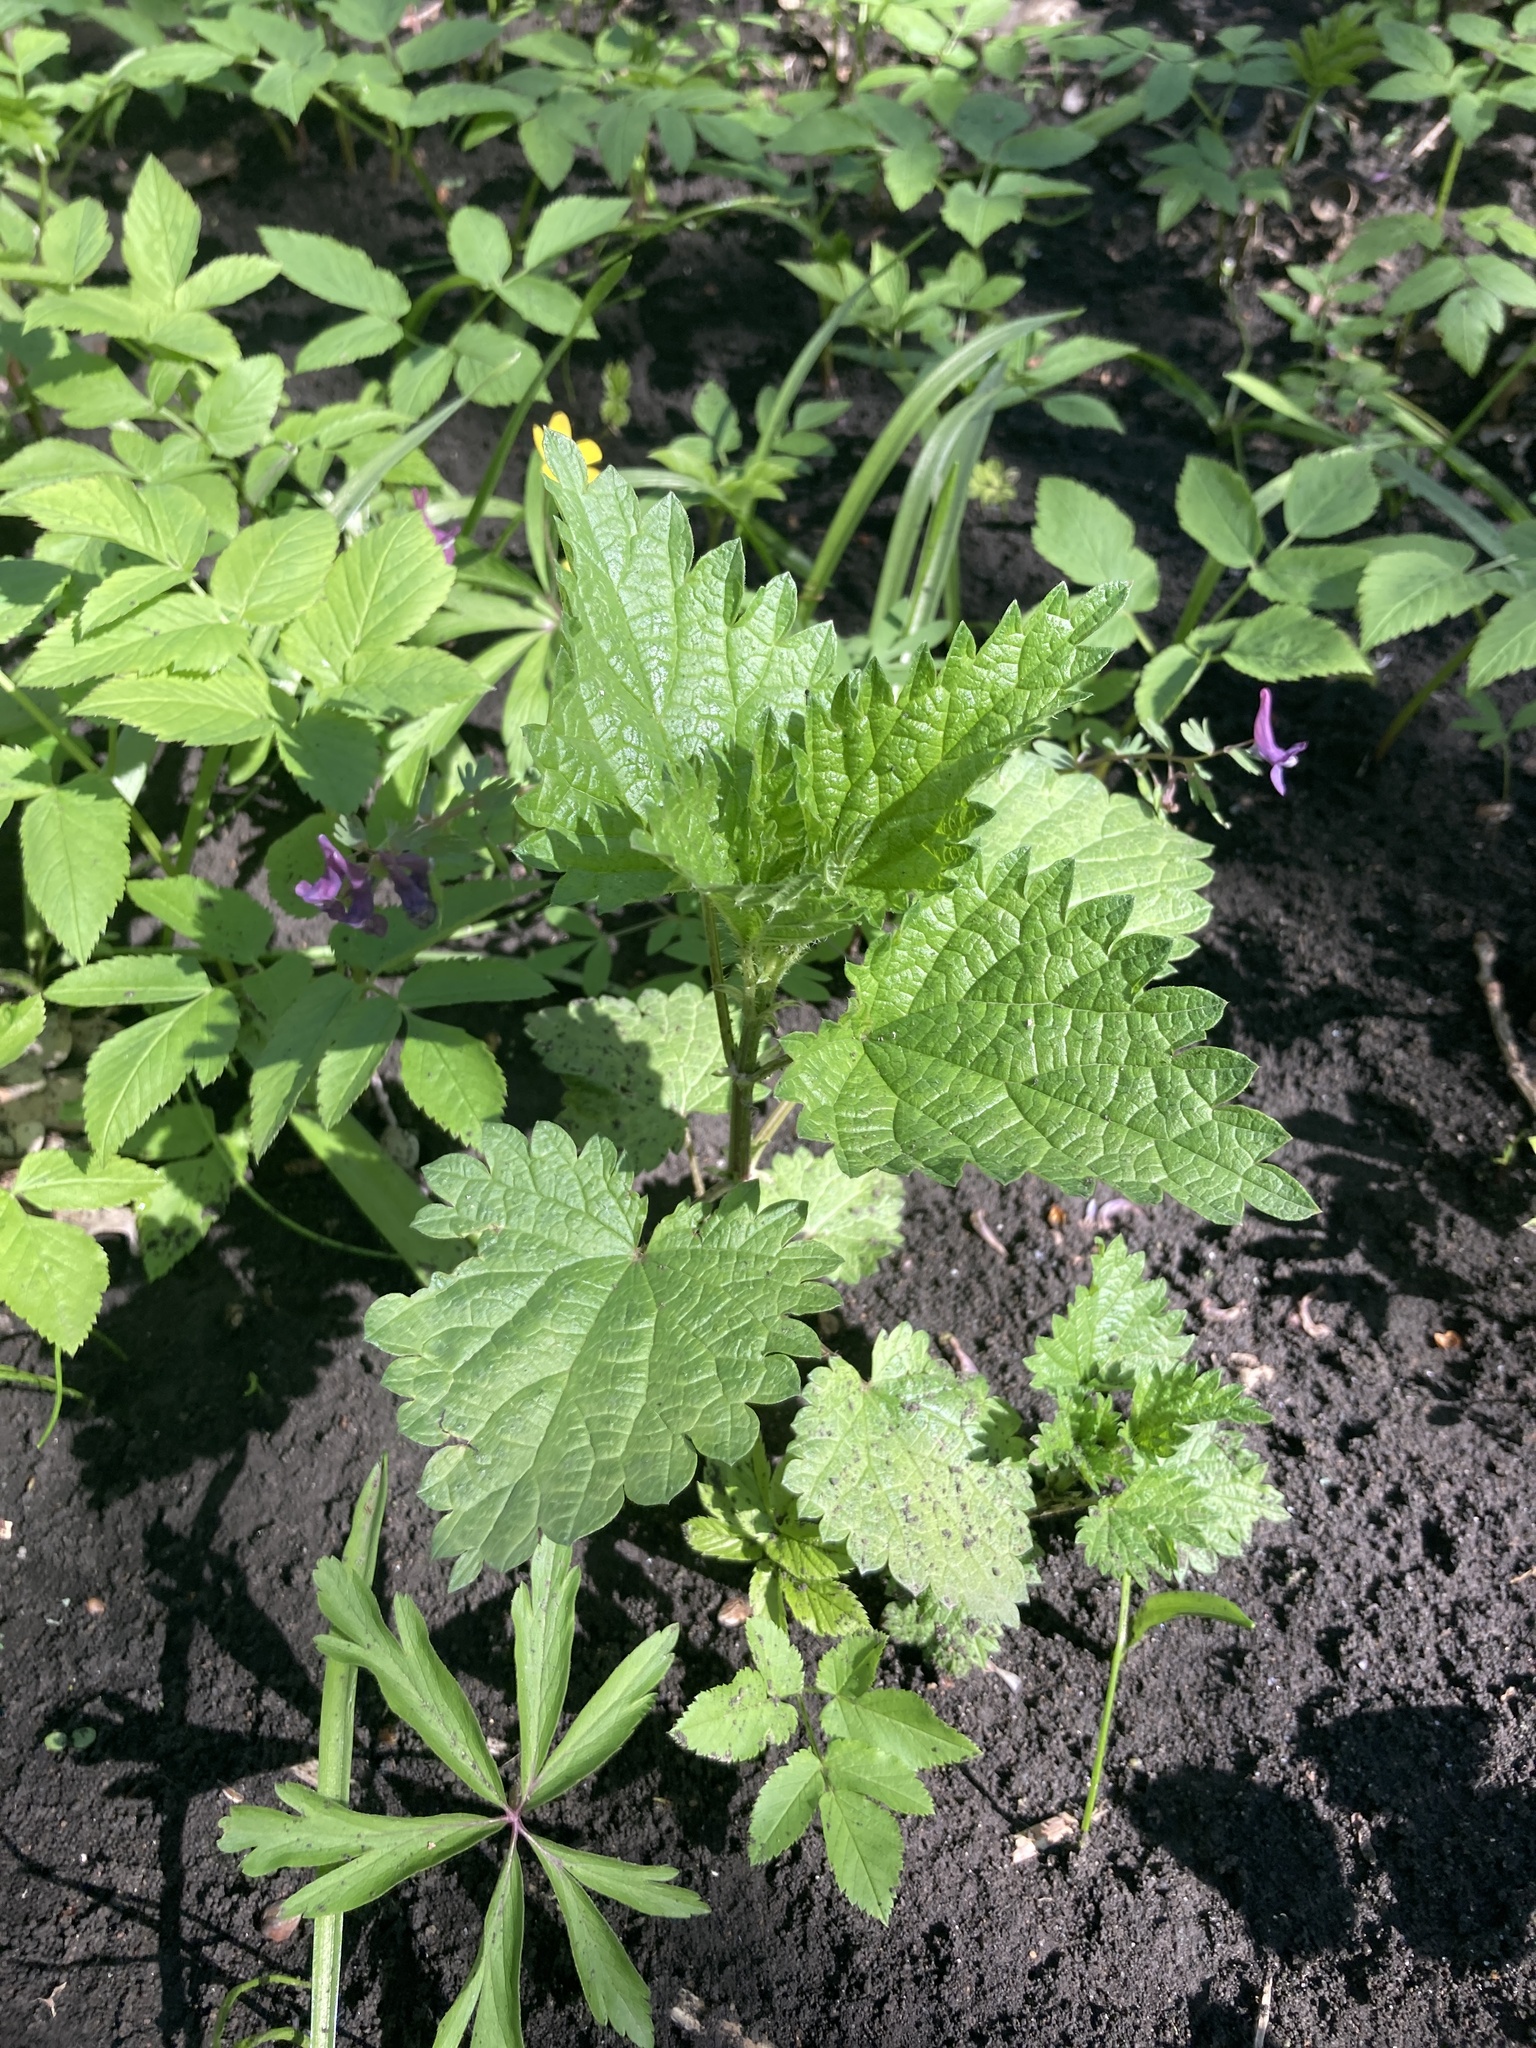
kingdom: Plantae
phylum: Tracheophyta
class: Magnoliopsida
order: Rosales
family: Urticaceae
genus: Urtica
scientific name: Urtica dioica
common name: Common nettle
